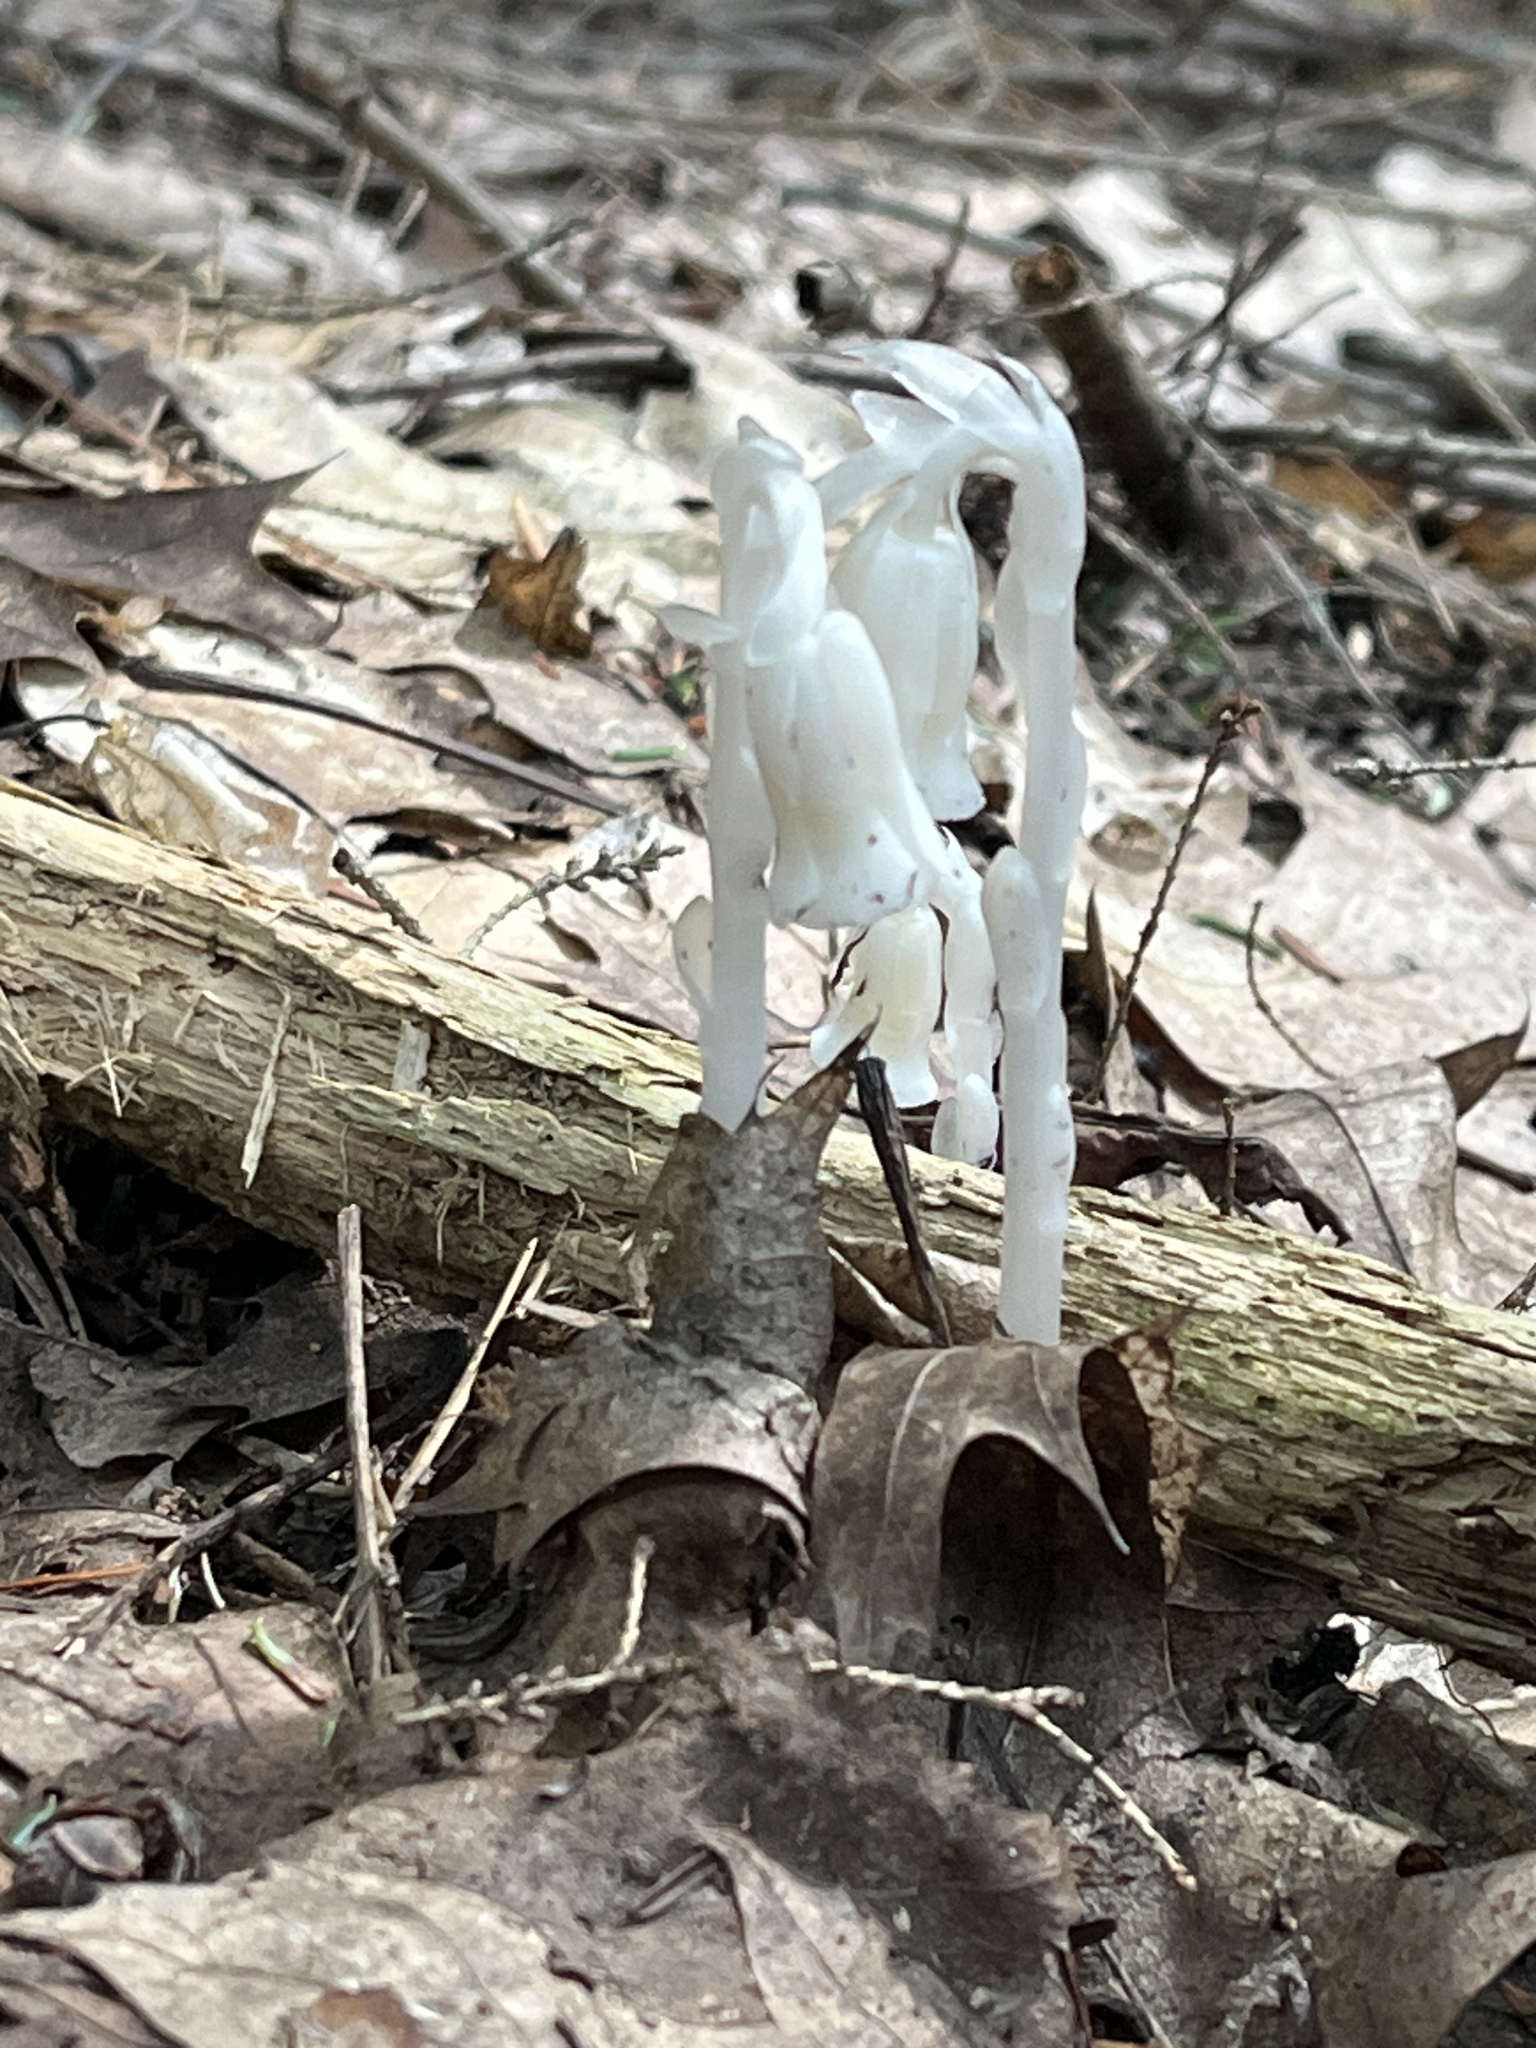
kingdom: Plantae
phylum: Tracheophyta
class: Magnoliopsida
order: Ericales
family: Ericaceae
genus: Monotropa
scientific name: Monotropa uniflora
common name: Convulsion root
